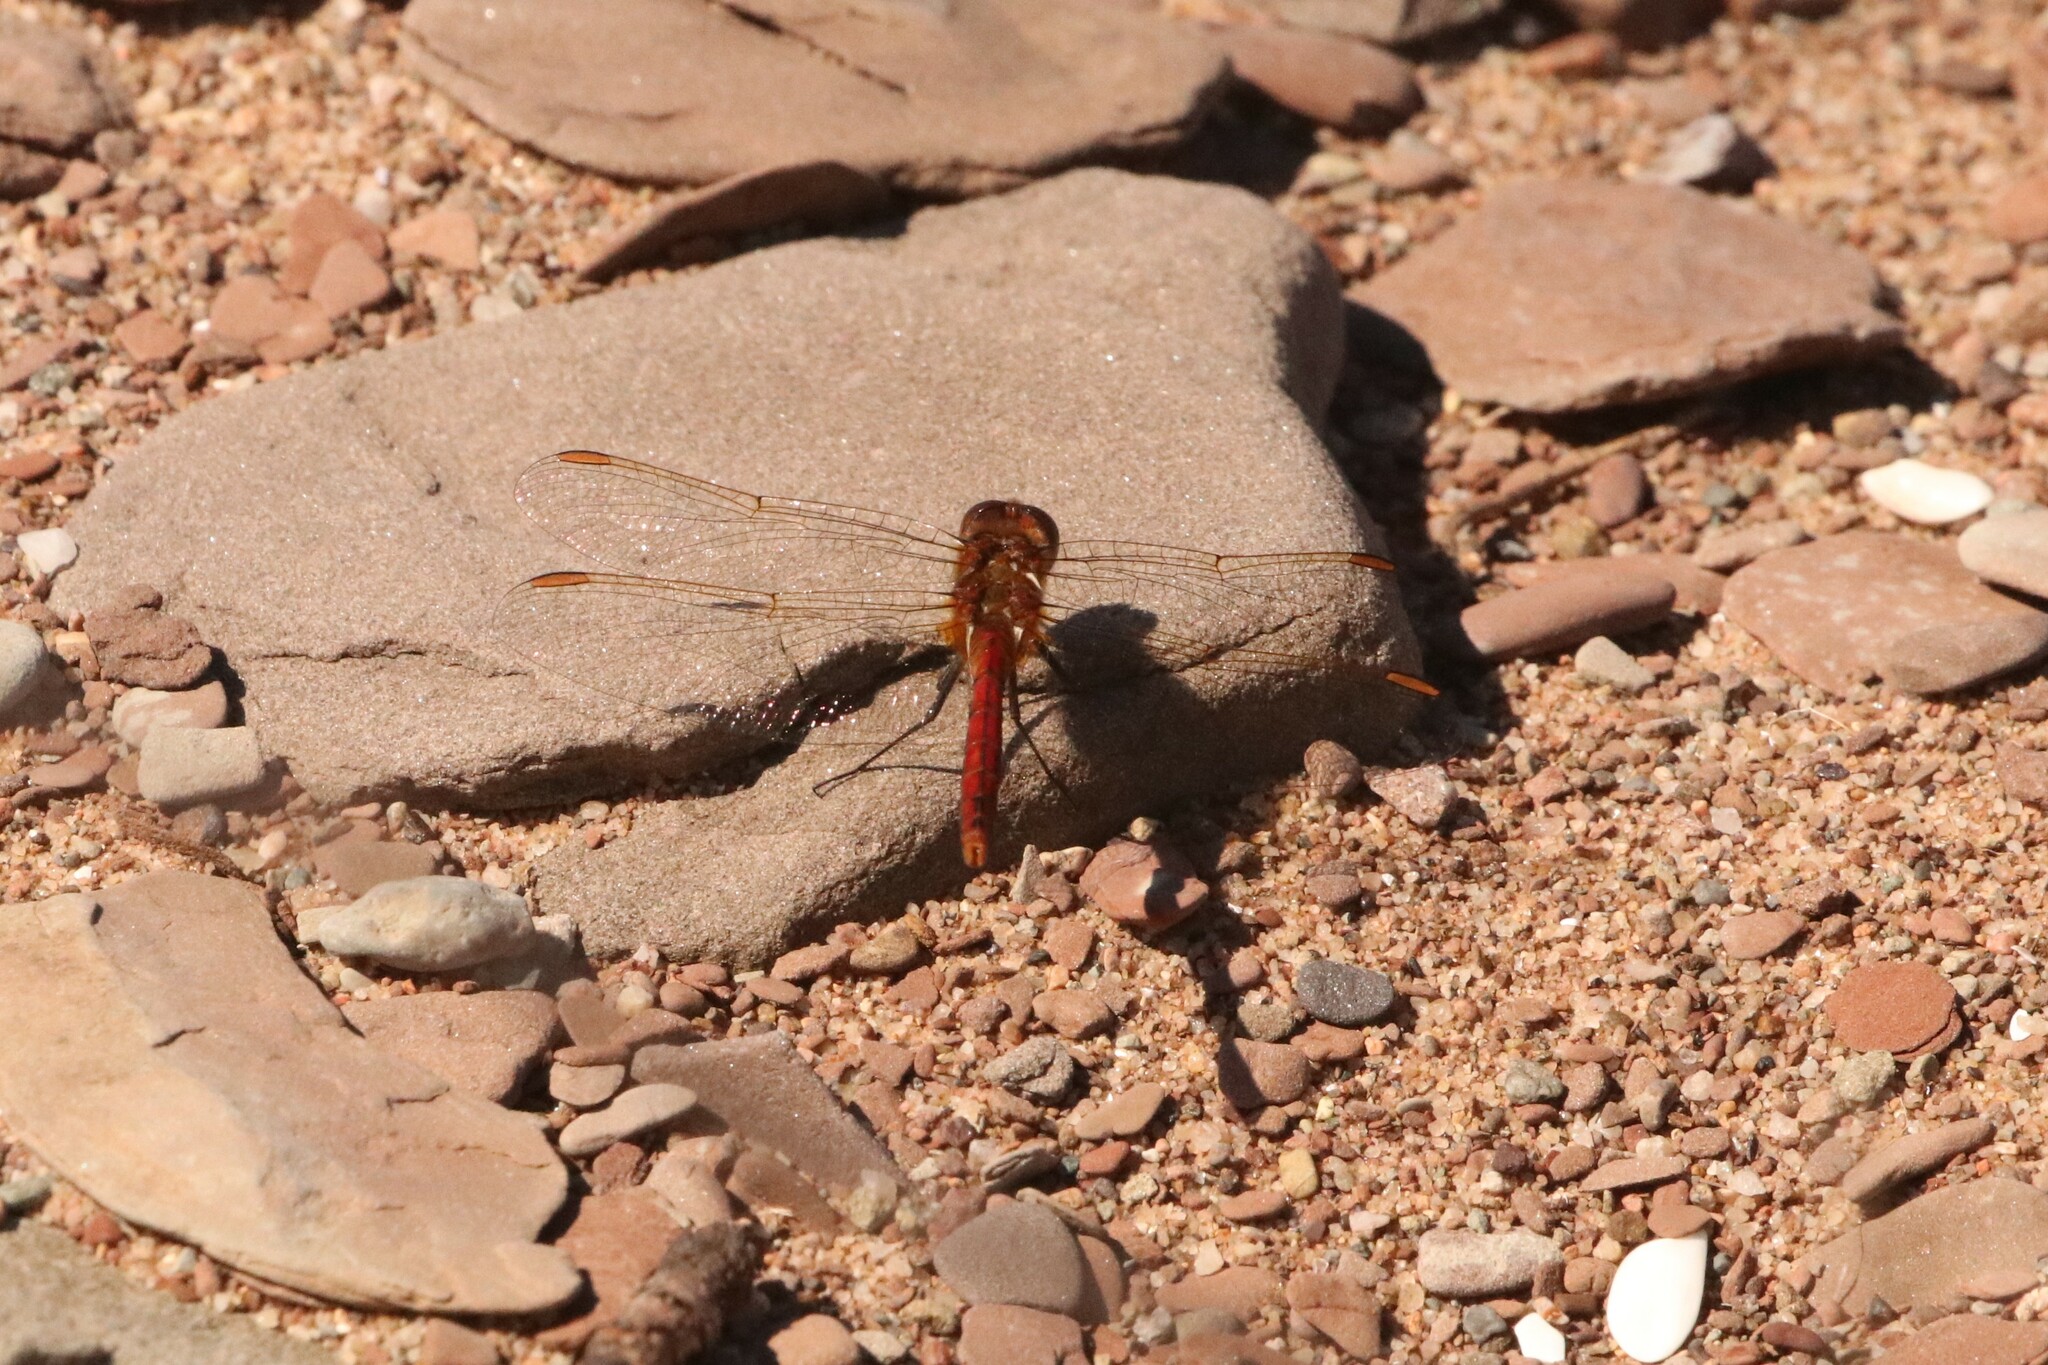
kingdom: Animalia
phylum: Arthropoda
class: Insecta
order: Odonata
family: Libellulidae
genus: Sympetrum
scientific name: Sympetrum costiferum
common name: Saffron-winged meadowhawk
